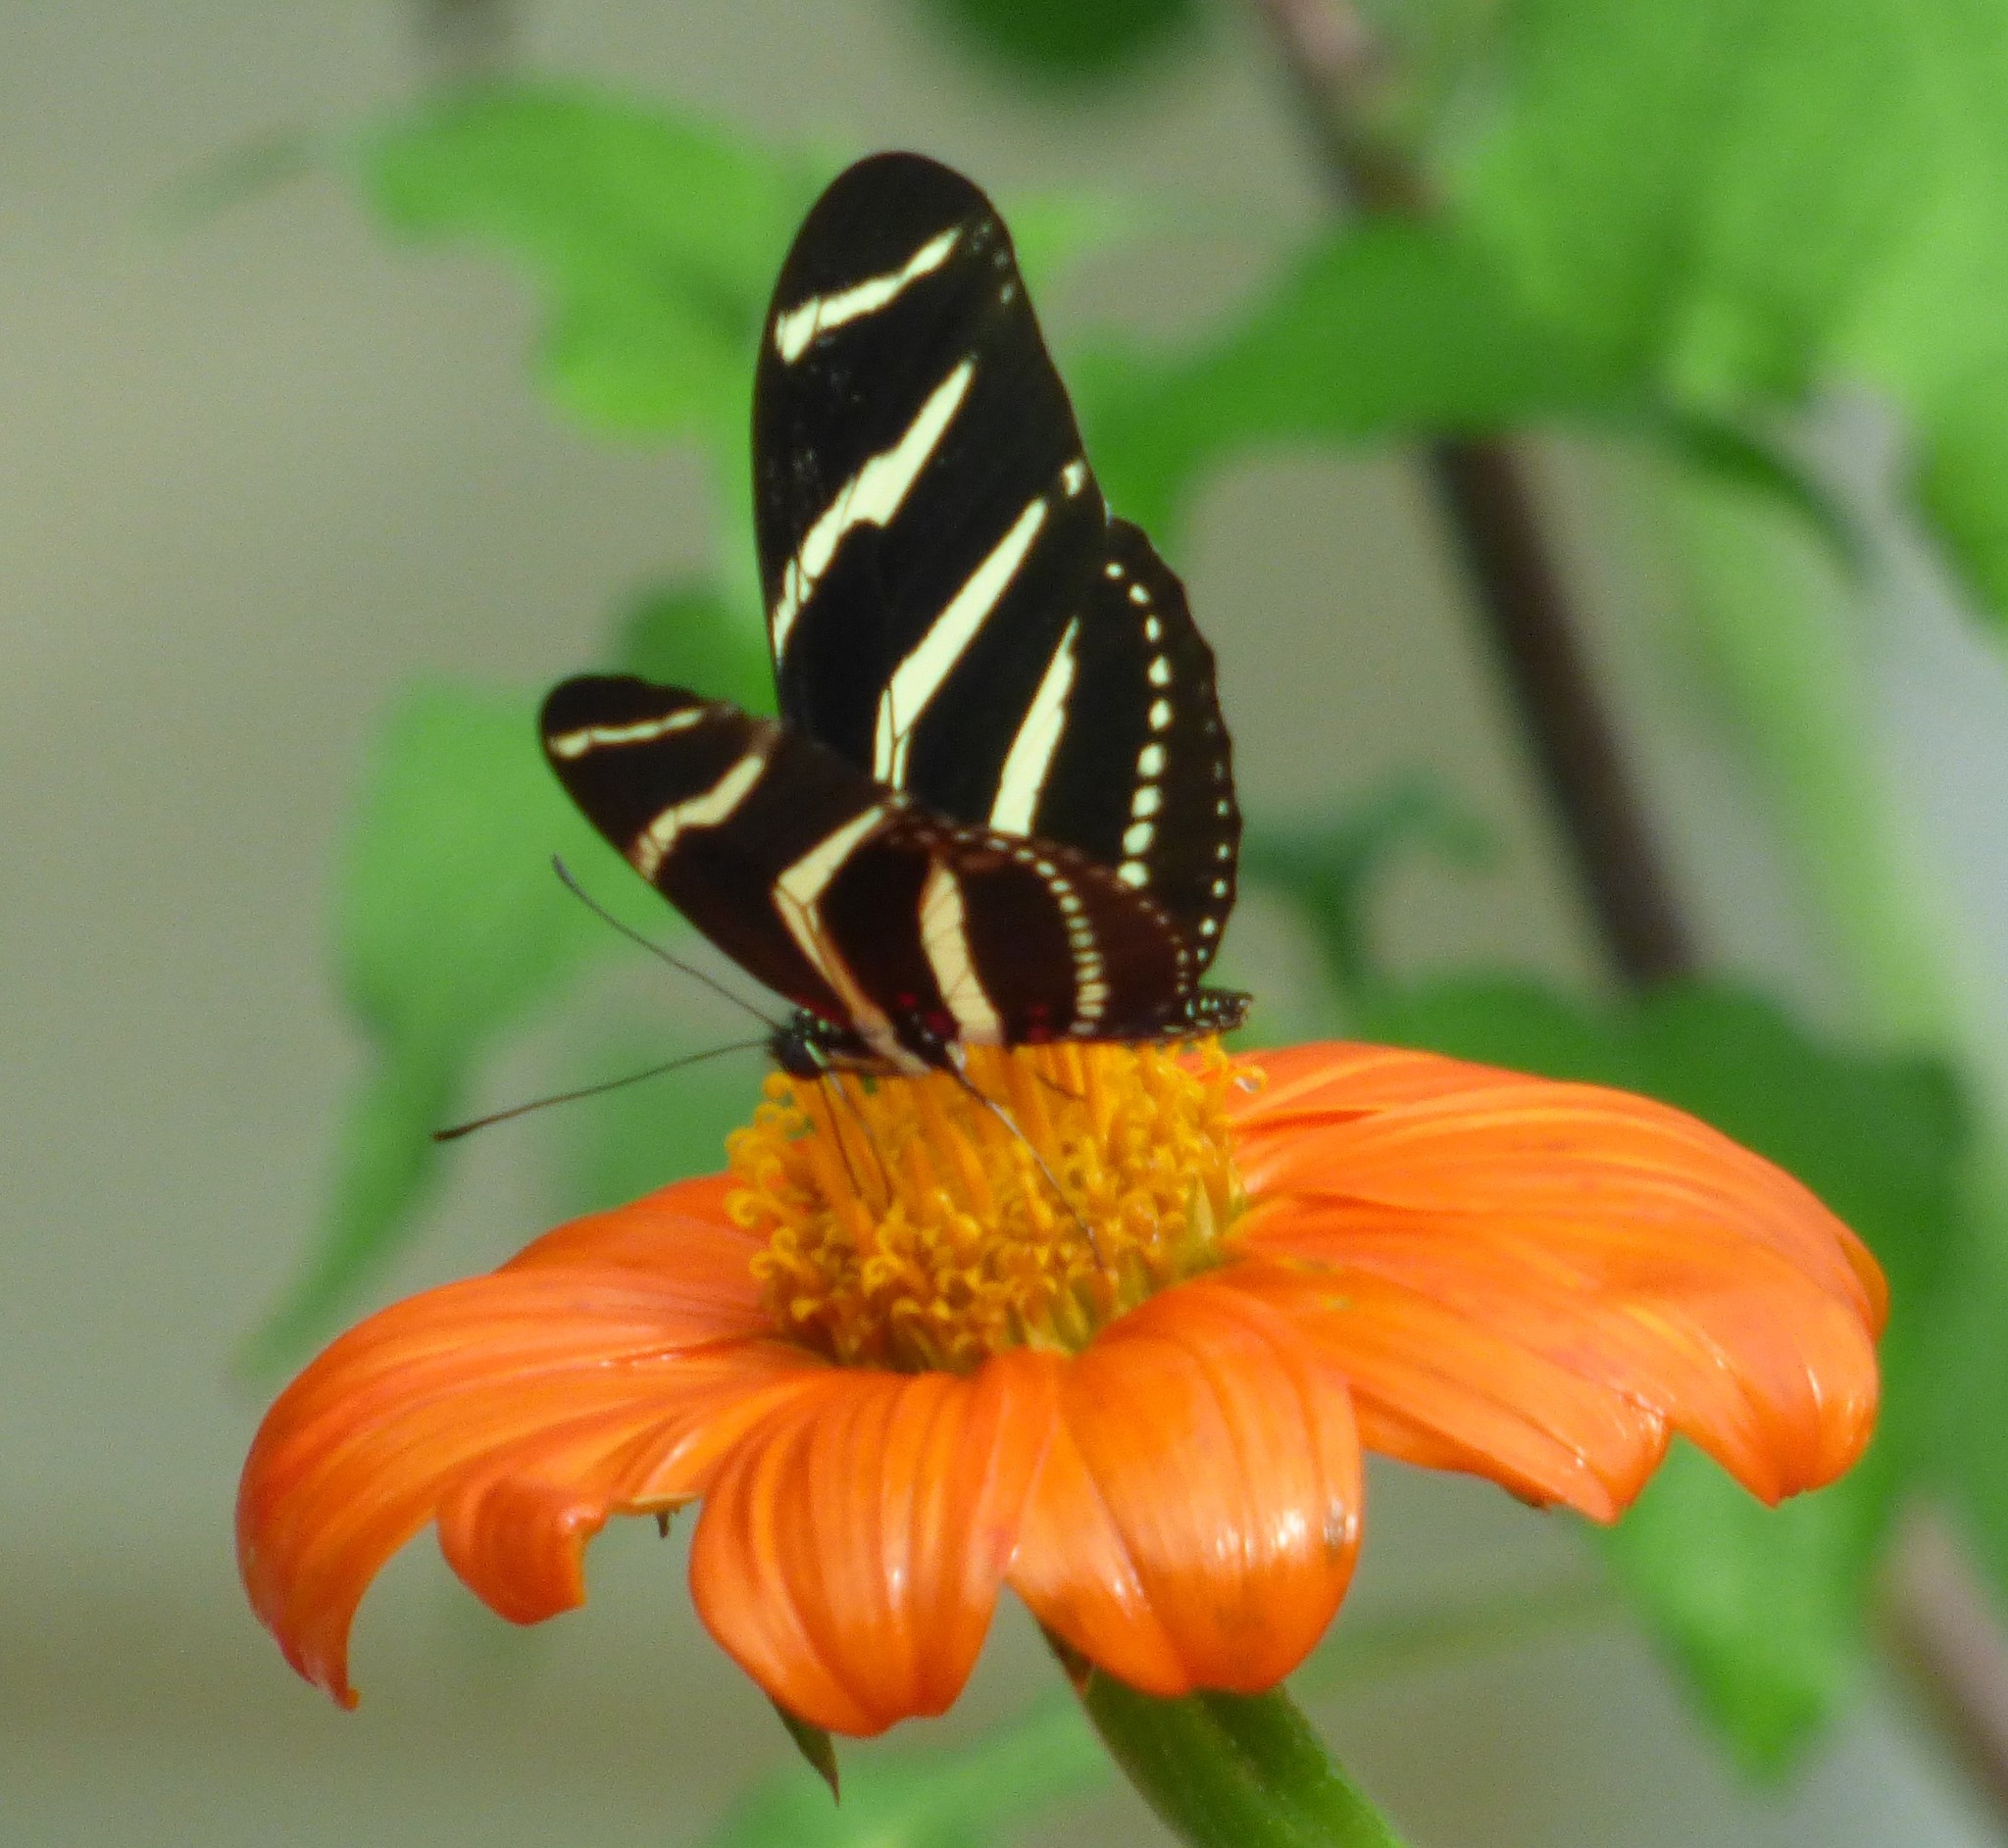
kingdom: Animalia
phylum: Arthropoda
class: Insecta
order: Lepidoptera
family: Nymphalidae
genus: Heliconius
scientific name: Heliconius charithonia
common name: Zebra long wing
